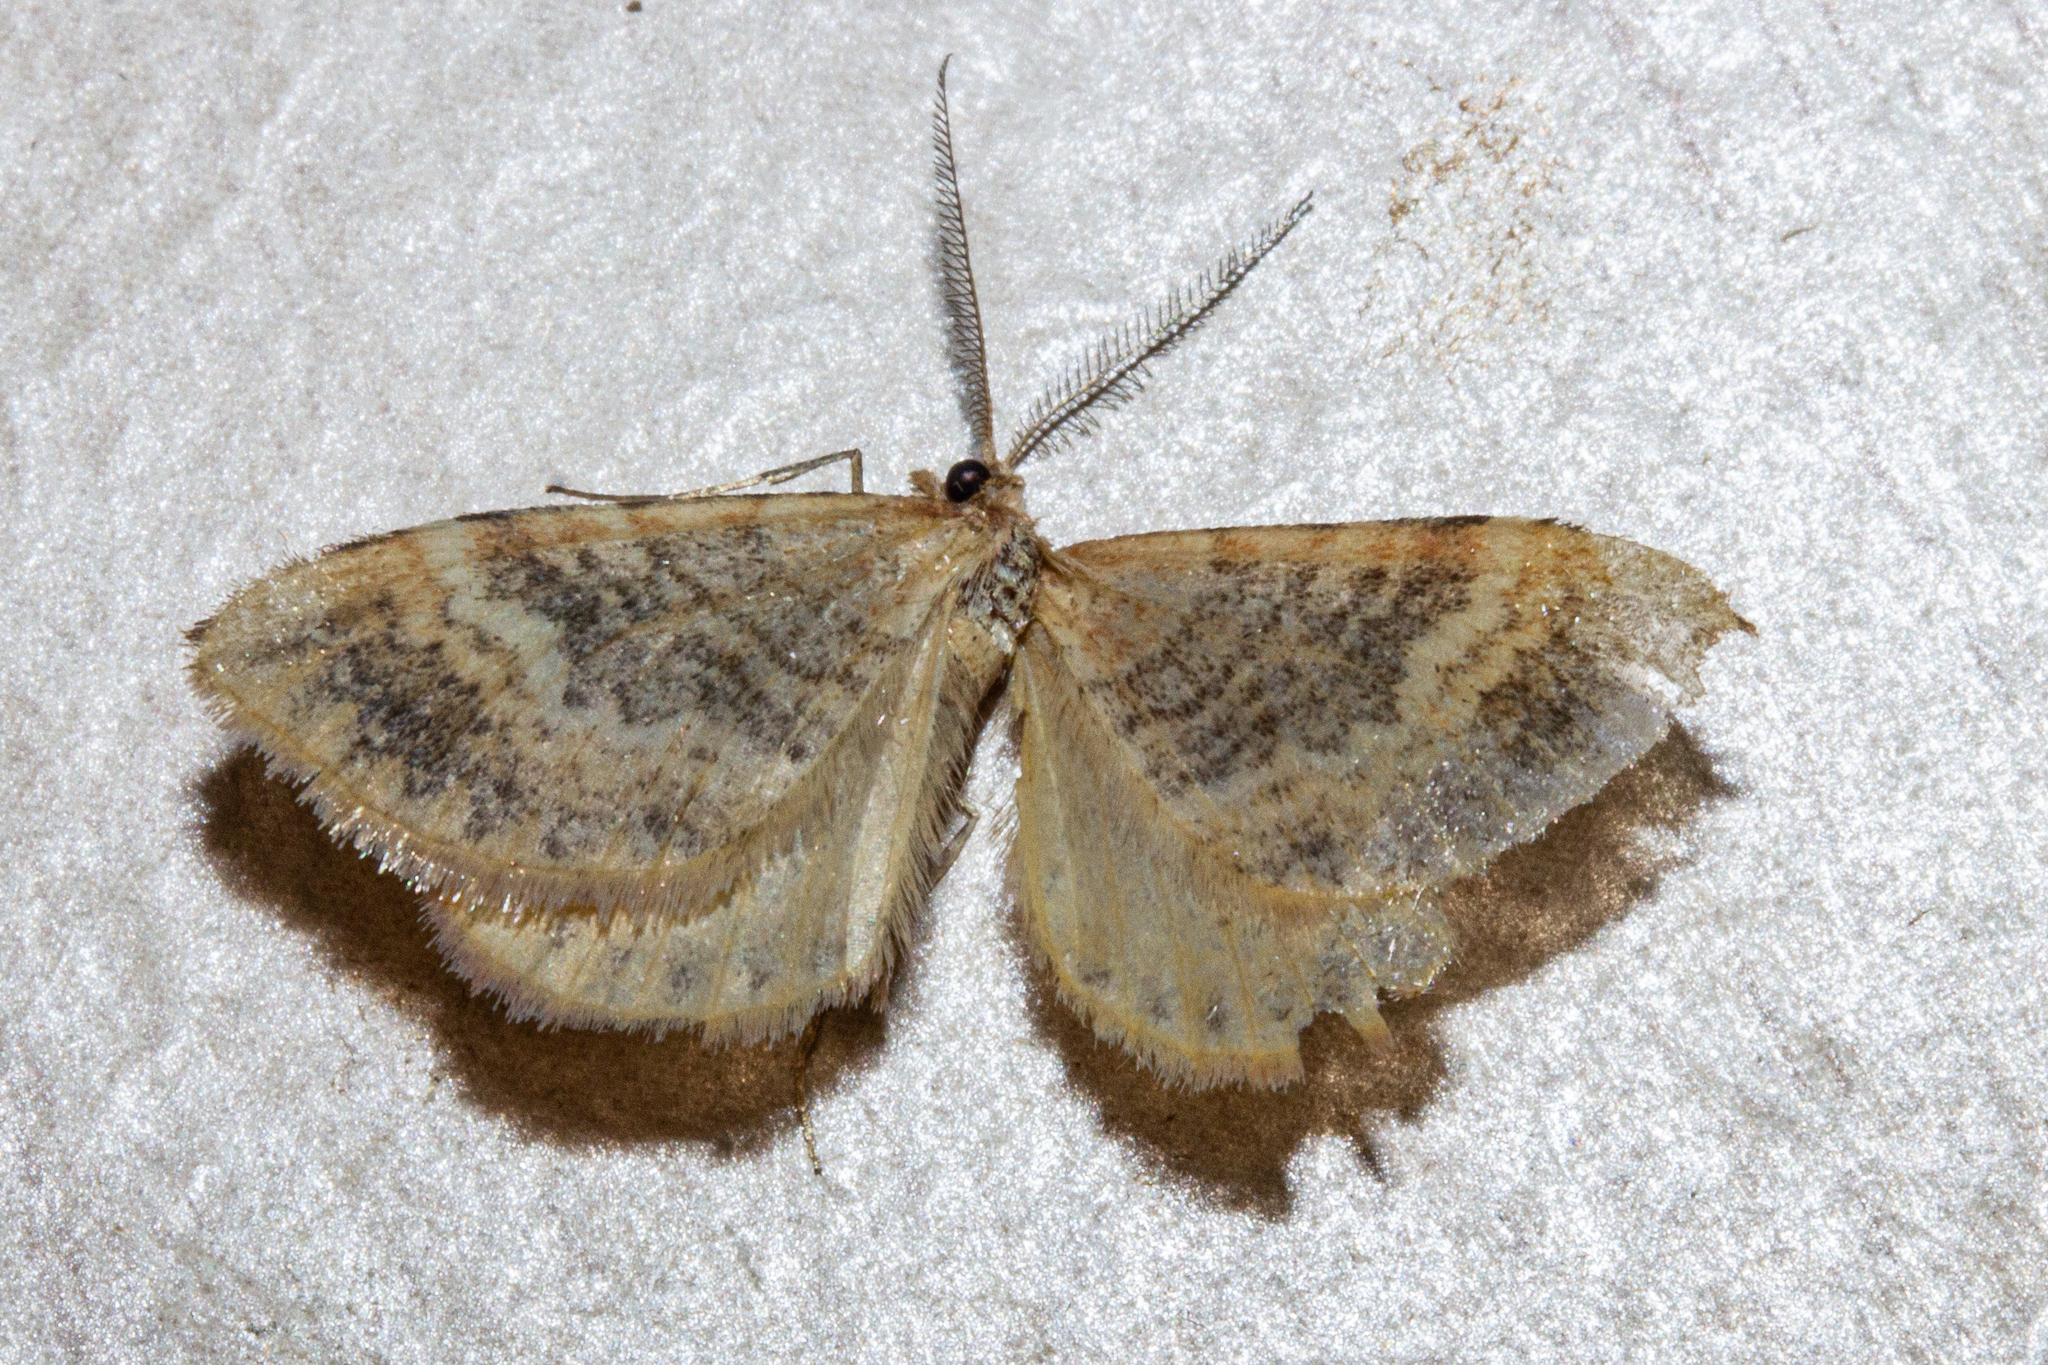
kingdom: Animalia
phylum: Arthropoda
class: Insecta
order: Lepidoptera
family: Geometridae
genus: Asaphodes
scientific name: Asaphodes recta
